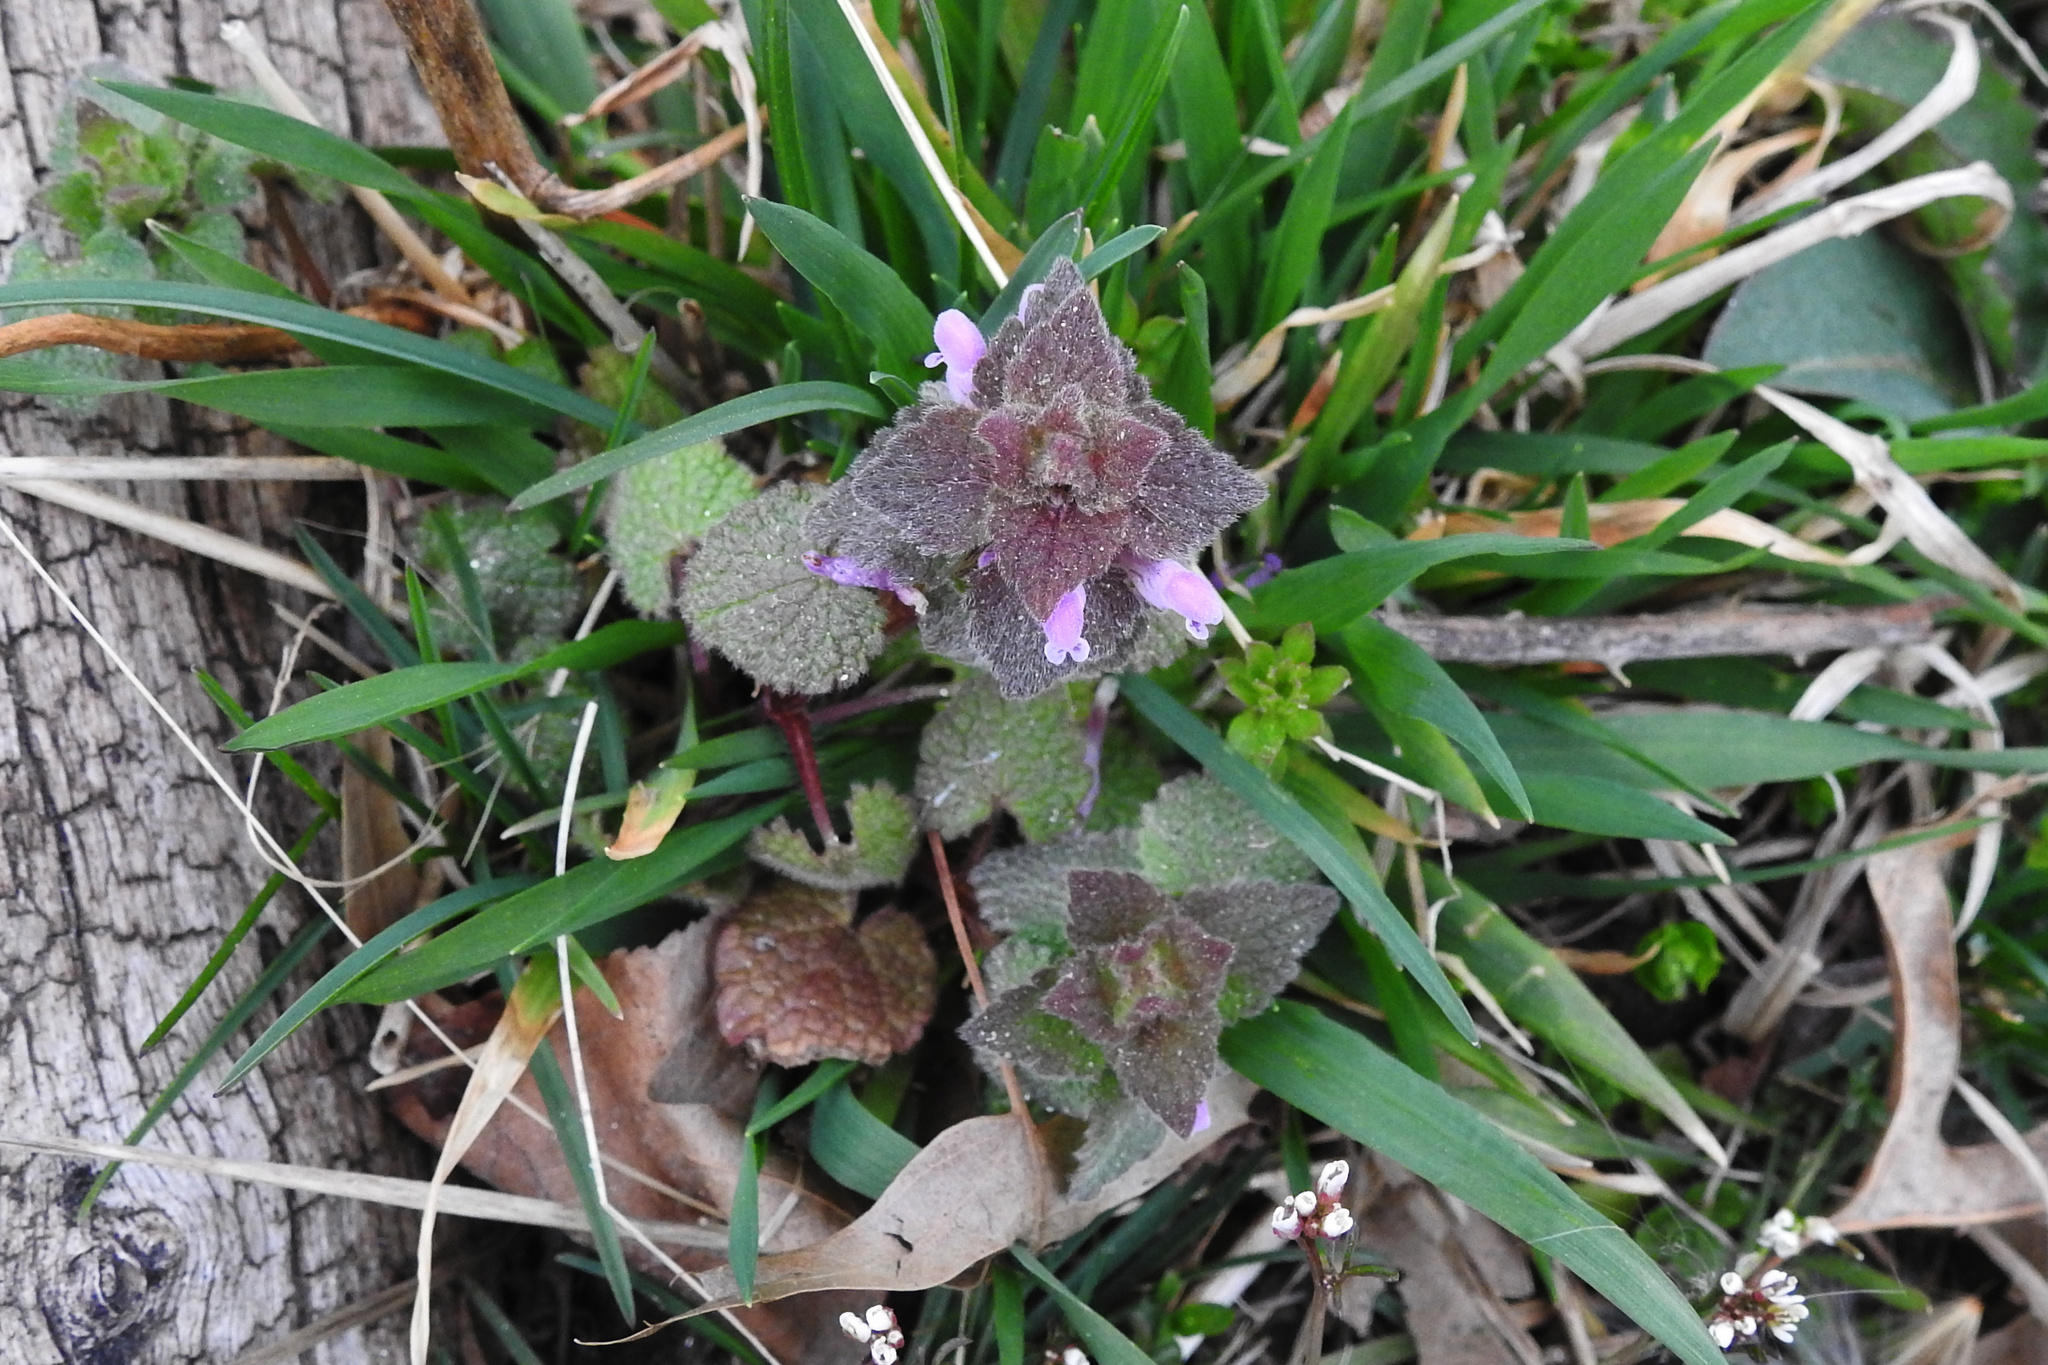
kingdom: Plantae
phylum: Tracheophyta
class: Magnoliopsida
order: Lamiales
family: Lamiaceae
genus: Lamium
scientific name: Lamium purpureum
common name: Red dead-nettle
